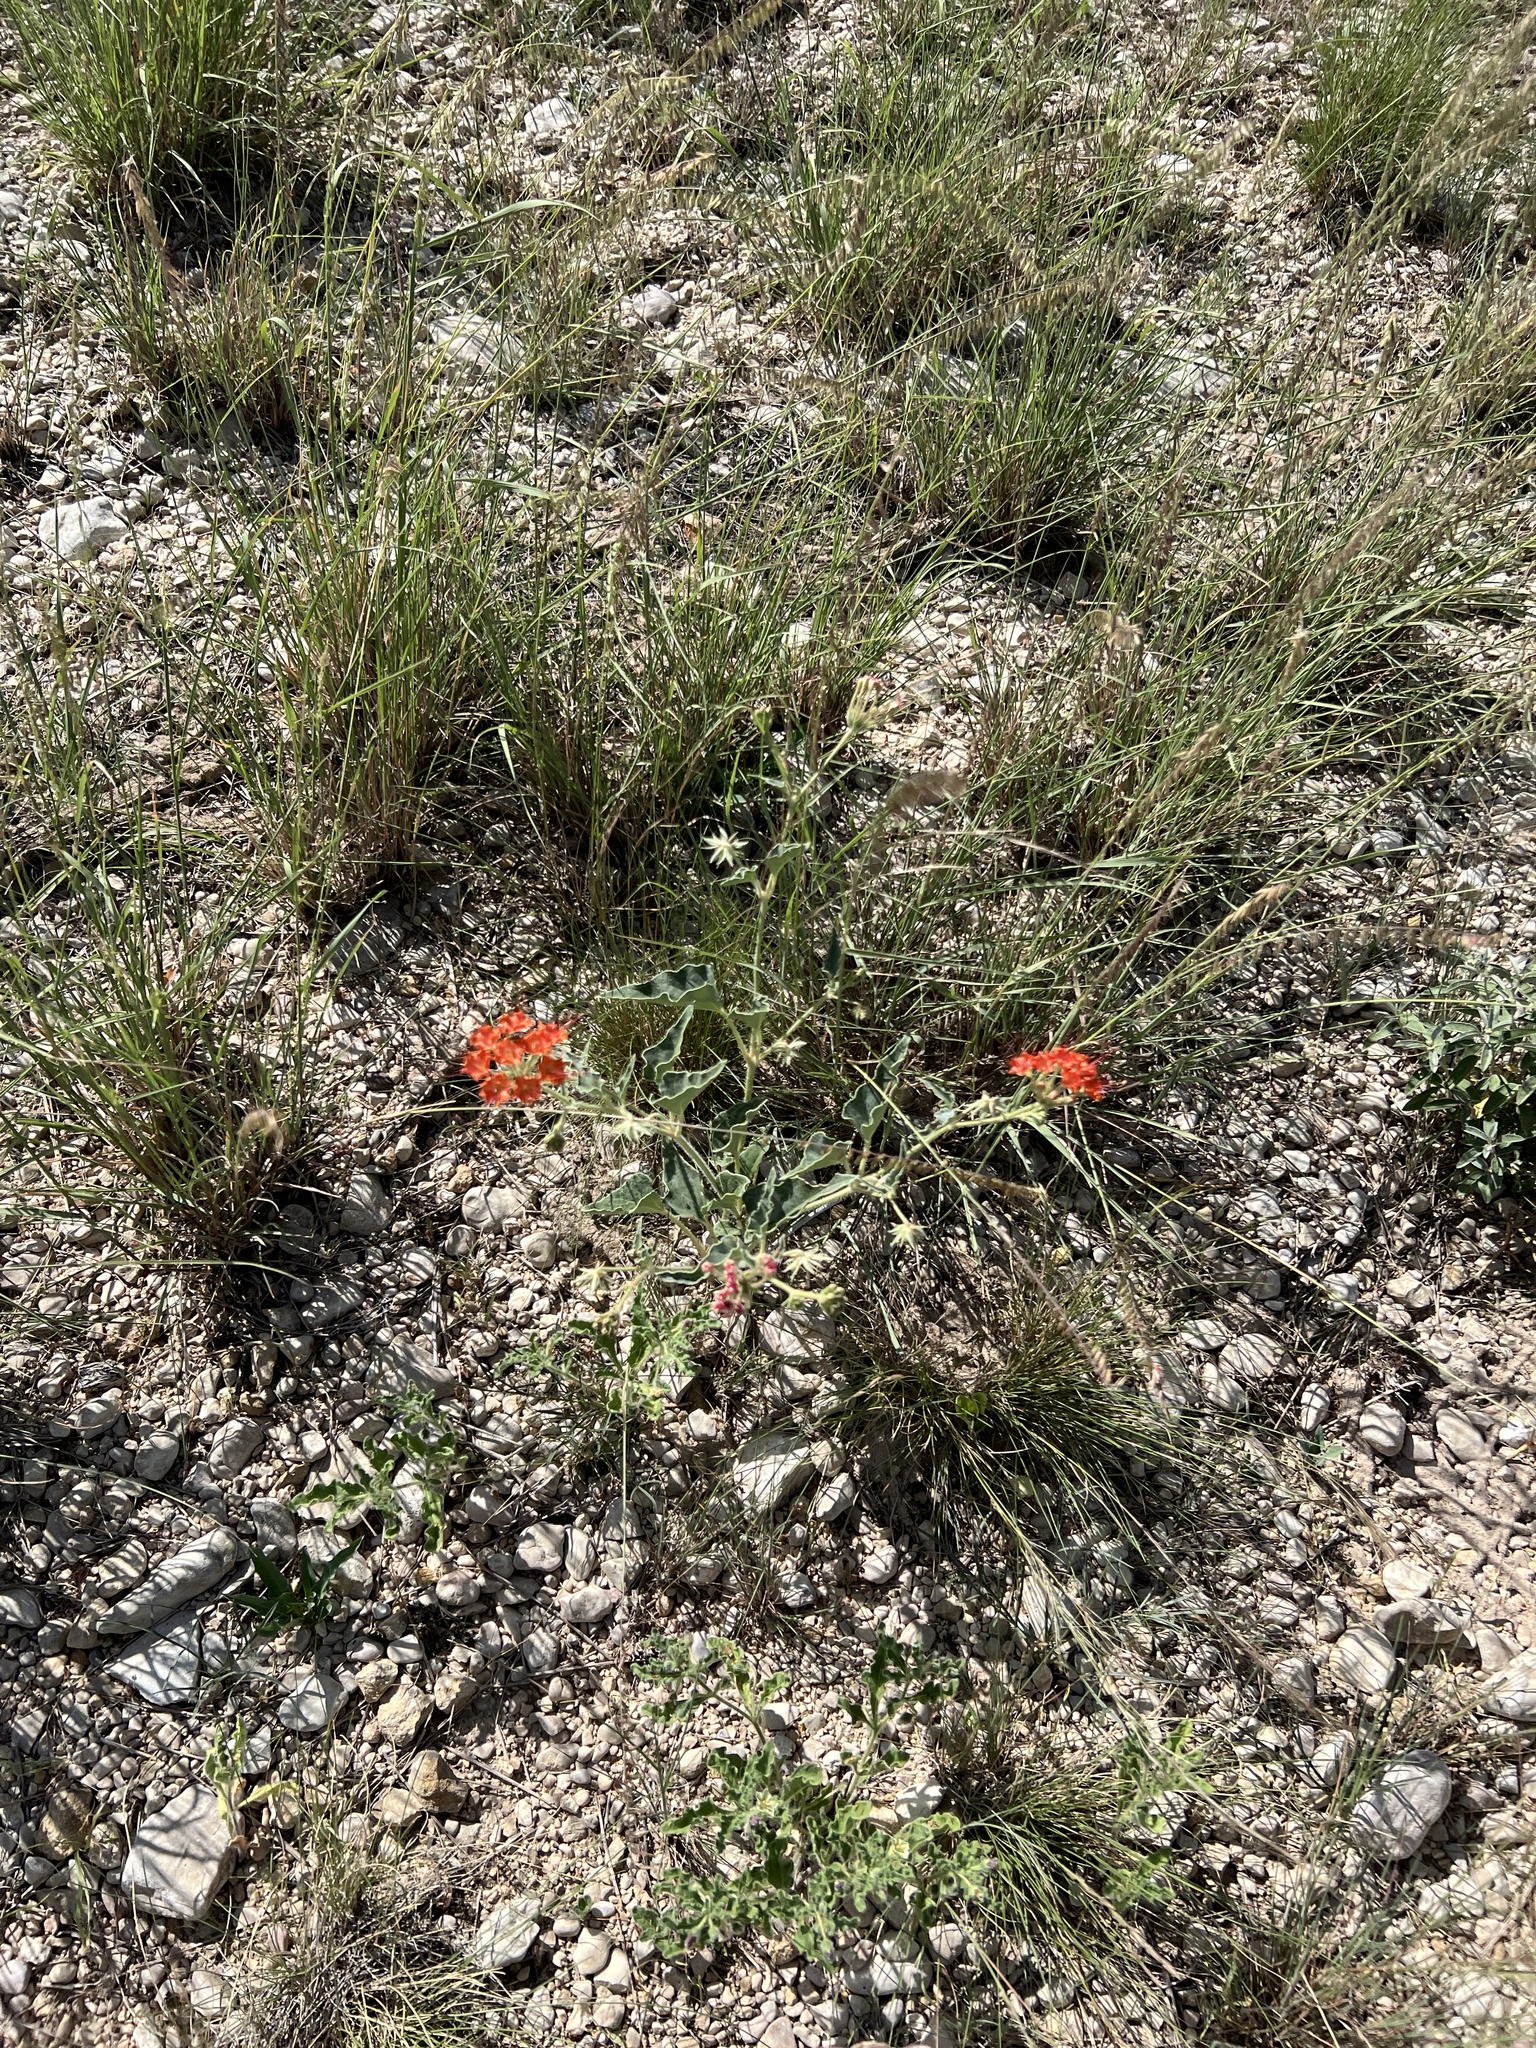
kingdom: Plantae
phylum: Tracheophyta
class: Magnoliopsida
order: Caryophyllales
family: Nyctaginaceae
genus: Nyctaginia
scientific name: Nyctaginia capitata
